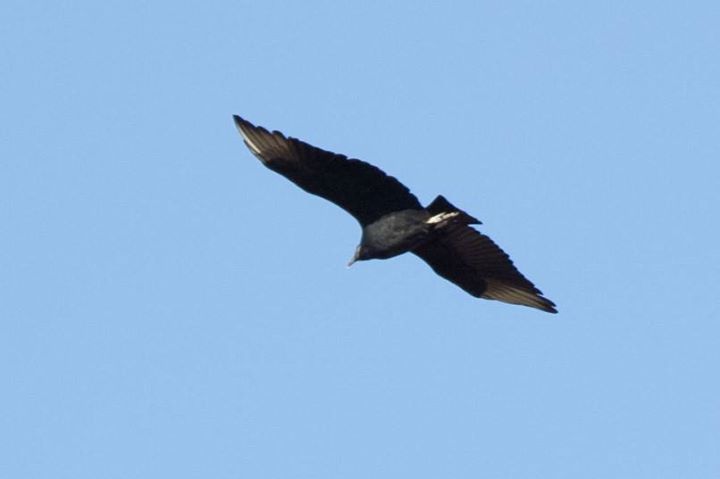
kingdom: Animalia
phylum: Chordata
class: Aves
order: Accipitriformes
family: Cathartidae
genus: Coragyps
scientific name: Coragyps atratus
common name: Black vulture
